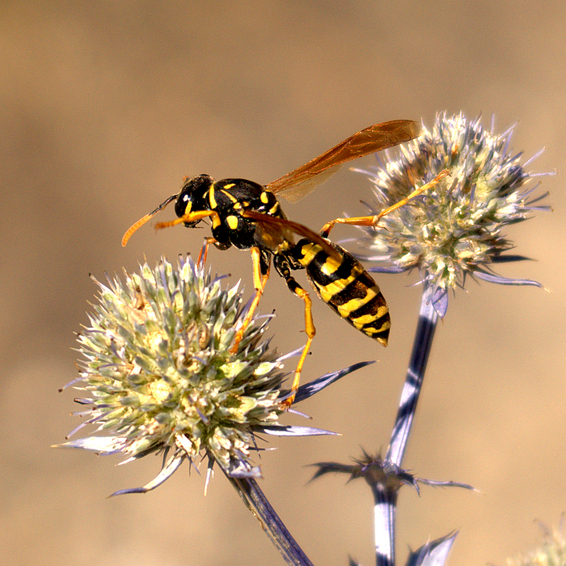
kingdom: Animalia
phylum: Arthropoda
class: Insecta
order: Hymenoptera
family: Eumenidae
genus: Polistes
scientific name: Polistes dominula
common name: Paper wasp
